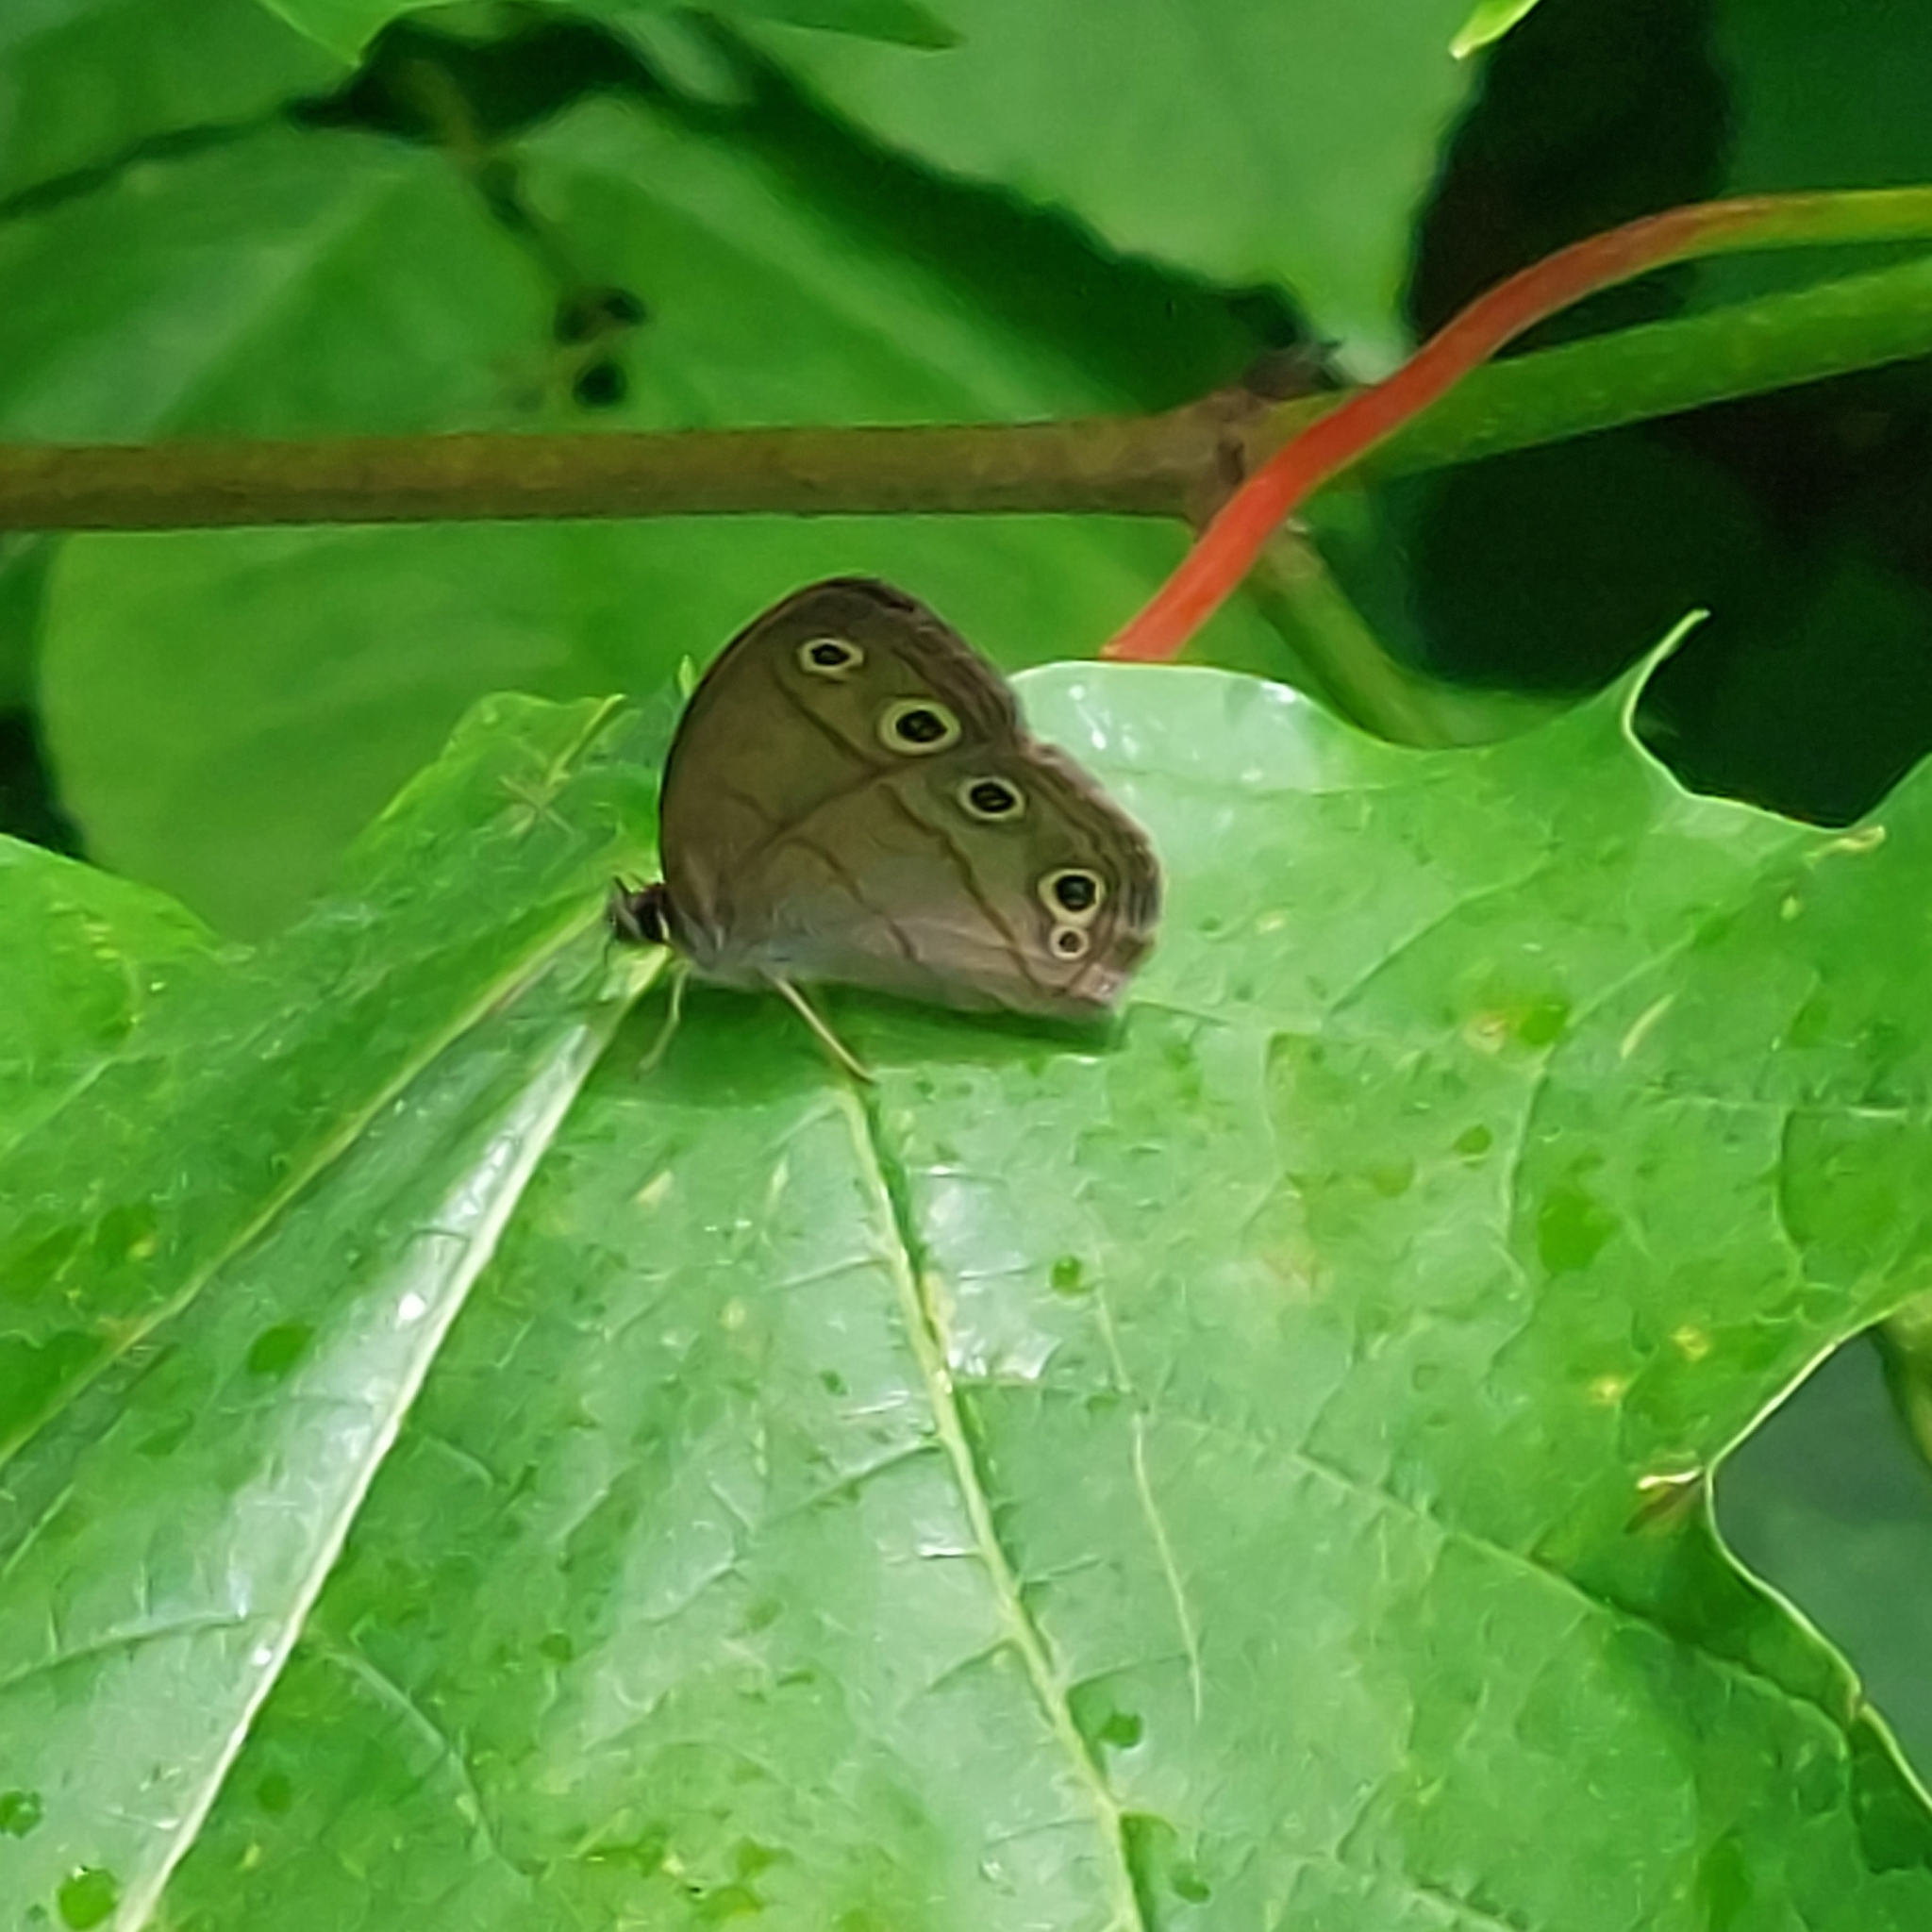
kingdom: Animalia
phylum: Arthropoda
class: Insecta
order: Lepidoptera
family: Nymphalidae
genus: Euptychia
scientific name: Euptychia cymela
